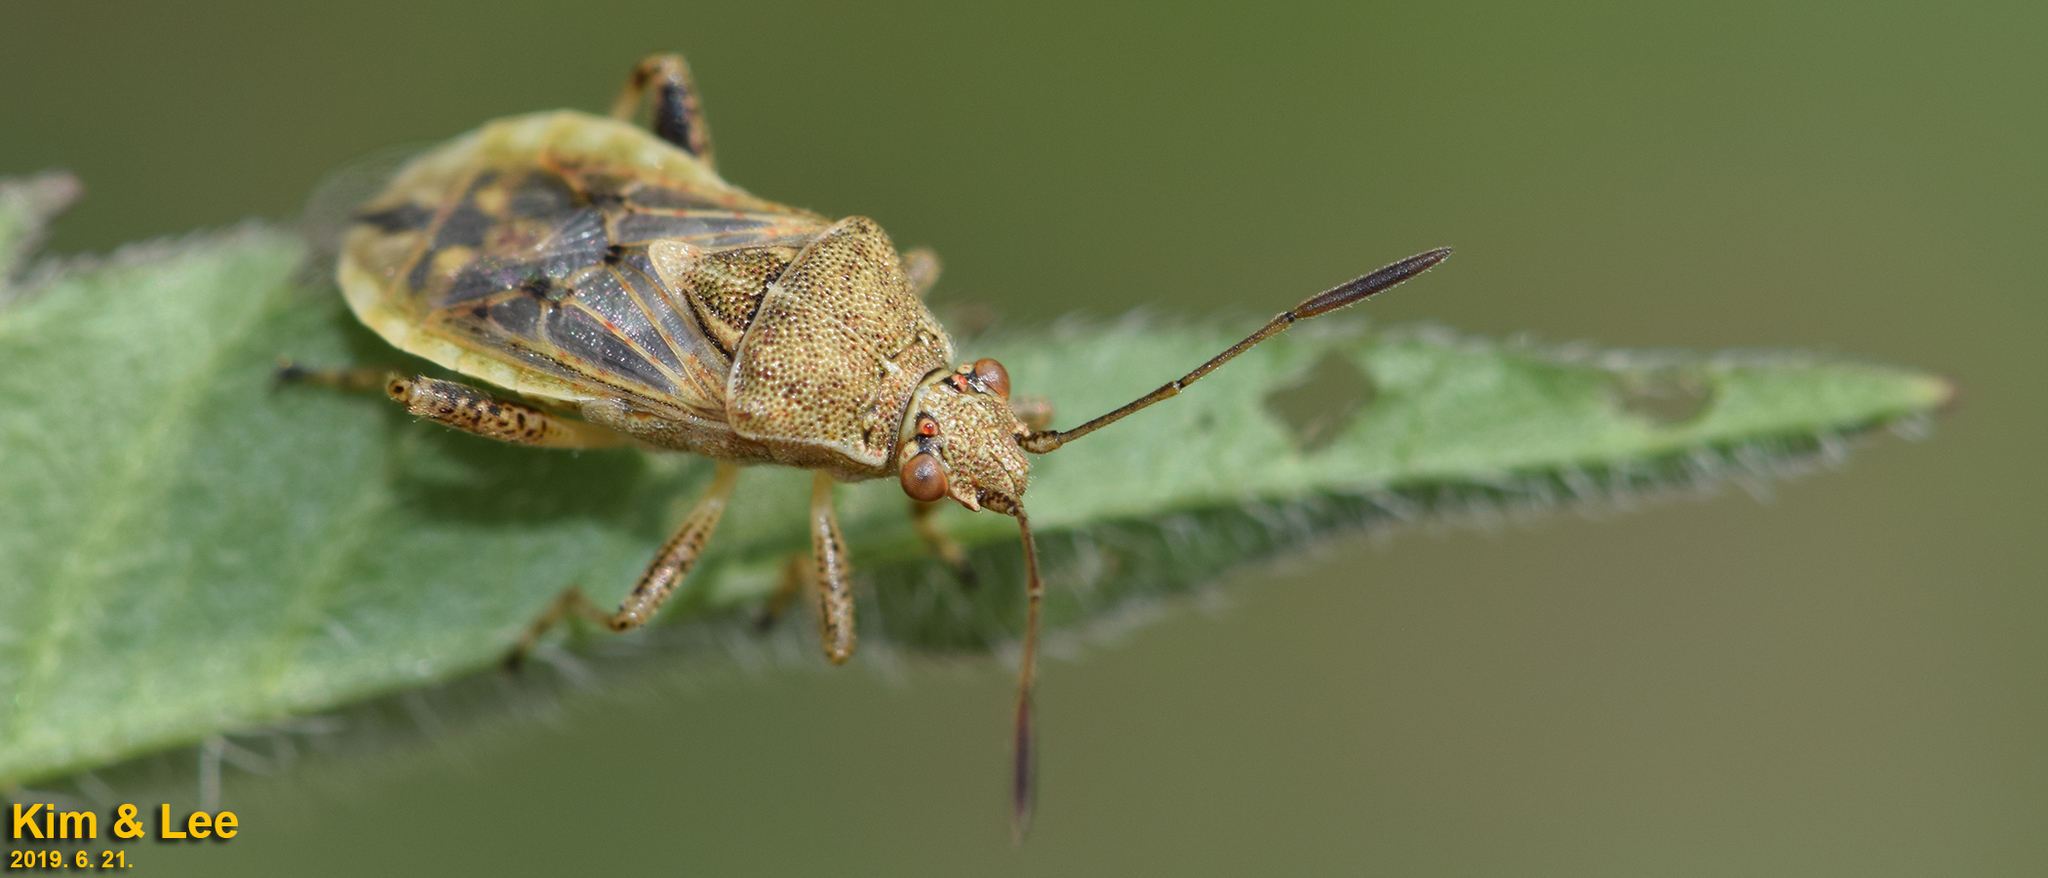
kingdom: Animalia
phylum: Arthropoda
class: Insecta
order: Hemiptera
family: Rhopalidae
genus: Stictopleurus
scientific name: Stictopleurus minutus
